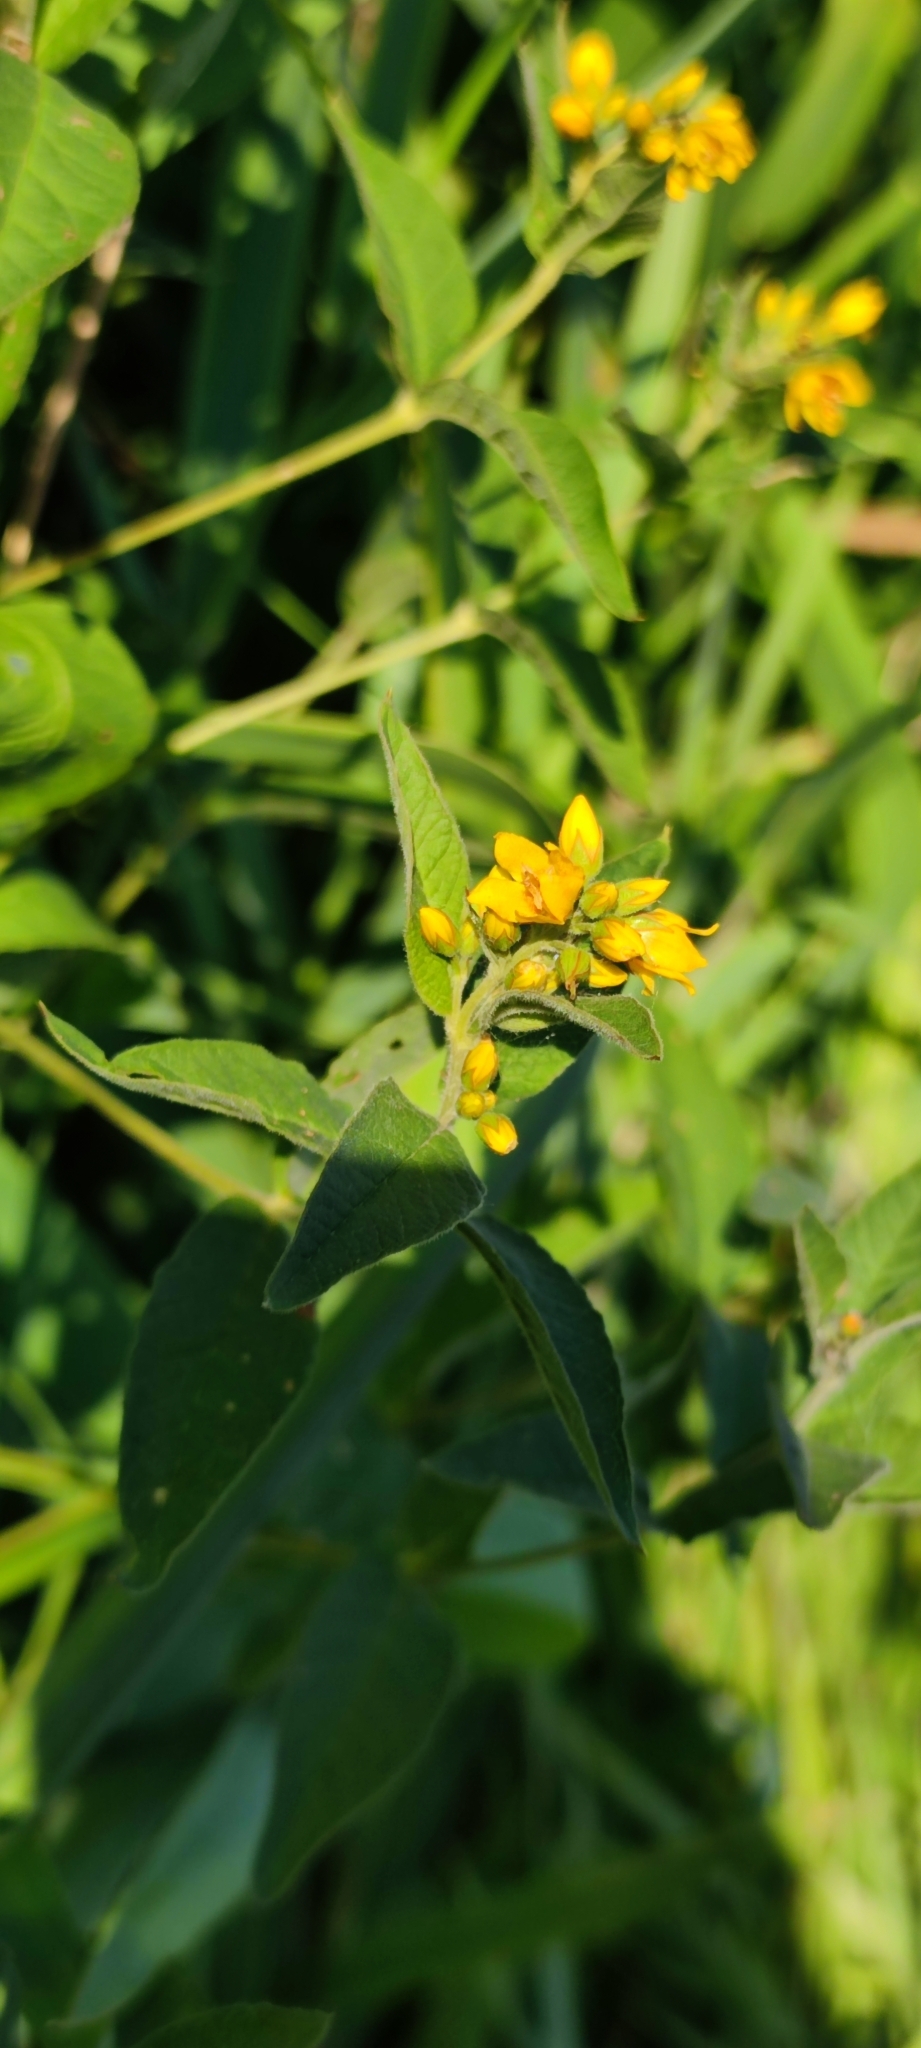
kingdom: Plantae
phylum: Tracheophyta
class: Magnoliopsida
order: Ericales
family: Primulaceae
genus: Lysimachia
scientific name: Lysimachia vulgaris
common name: Yellow loosestrife
